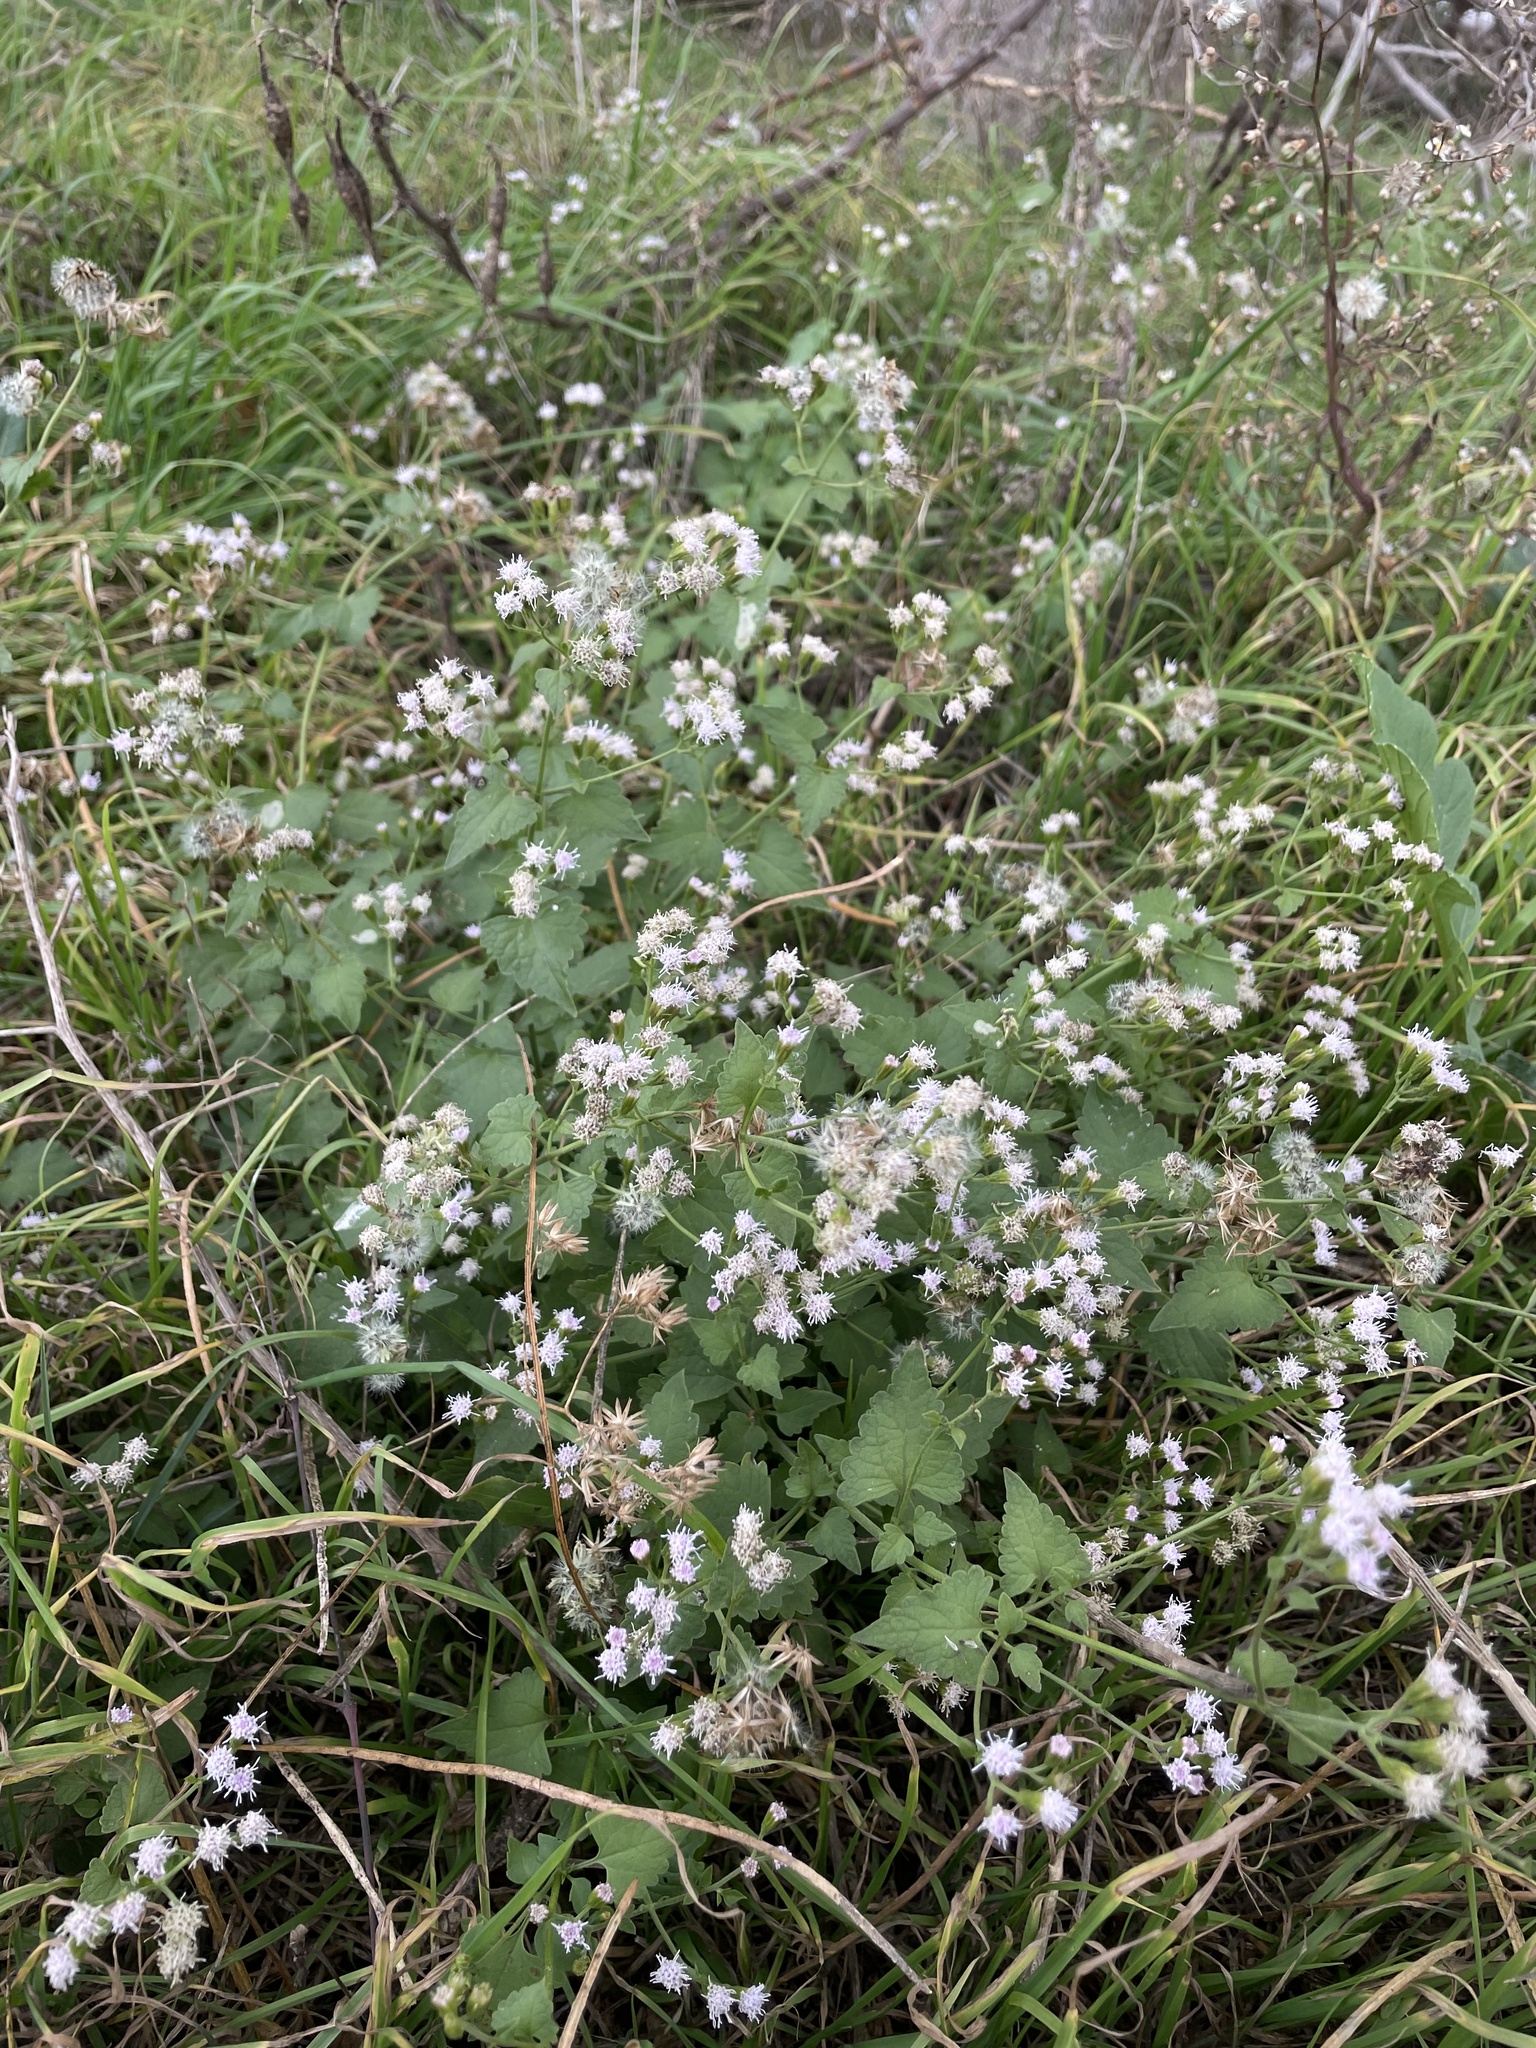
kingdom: Plantae
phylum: Tracheophyta
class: Magnoliopsida
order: Asterales
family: Asteraceae
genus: Fleischmannia
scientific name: Fleischmannia incarnata
